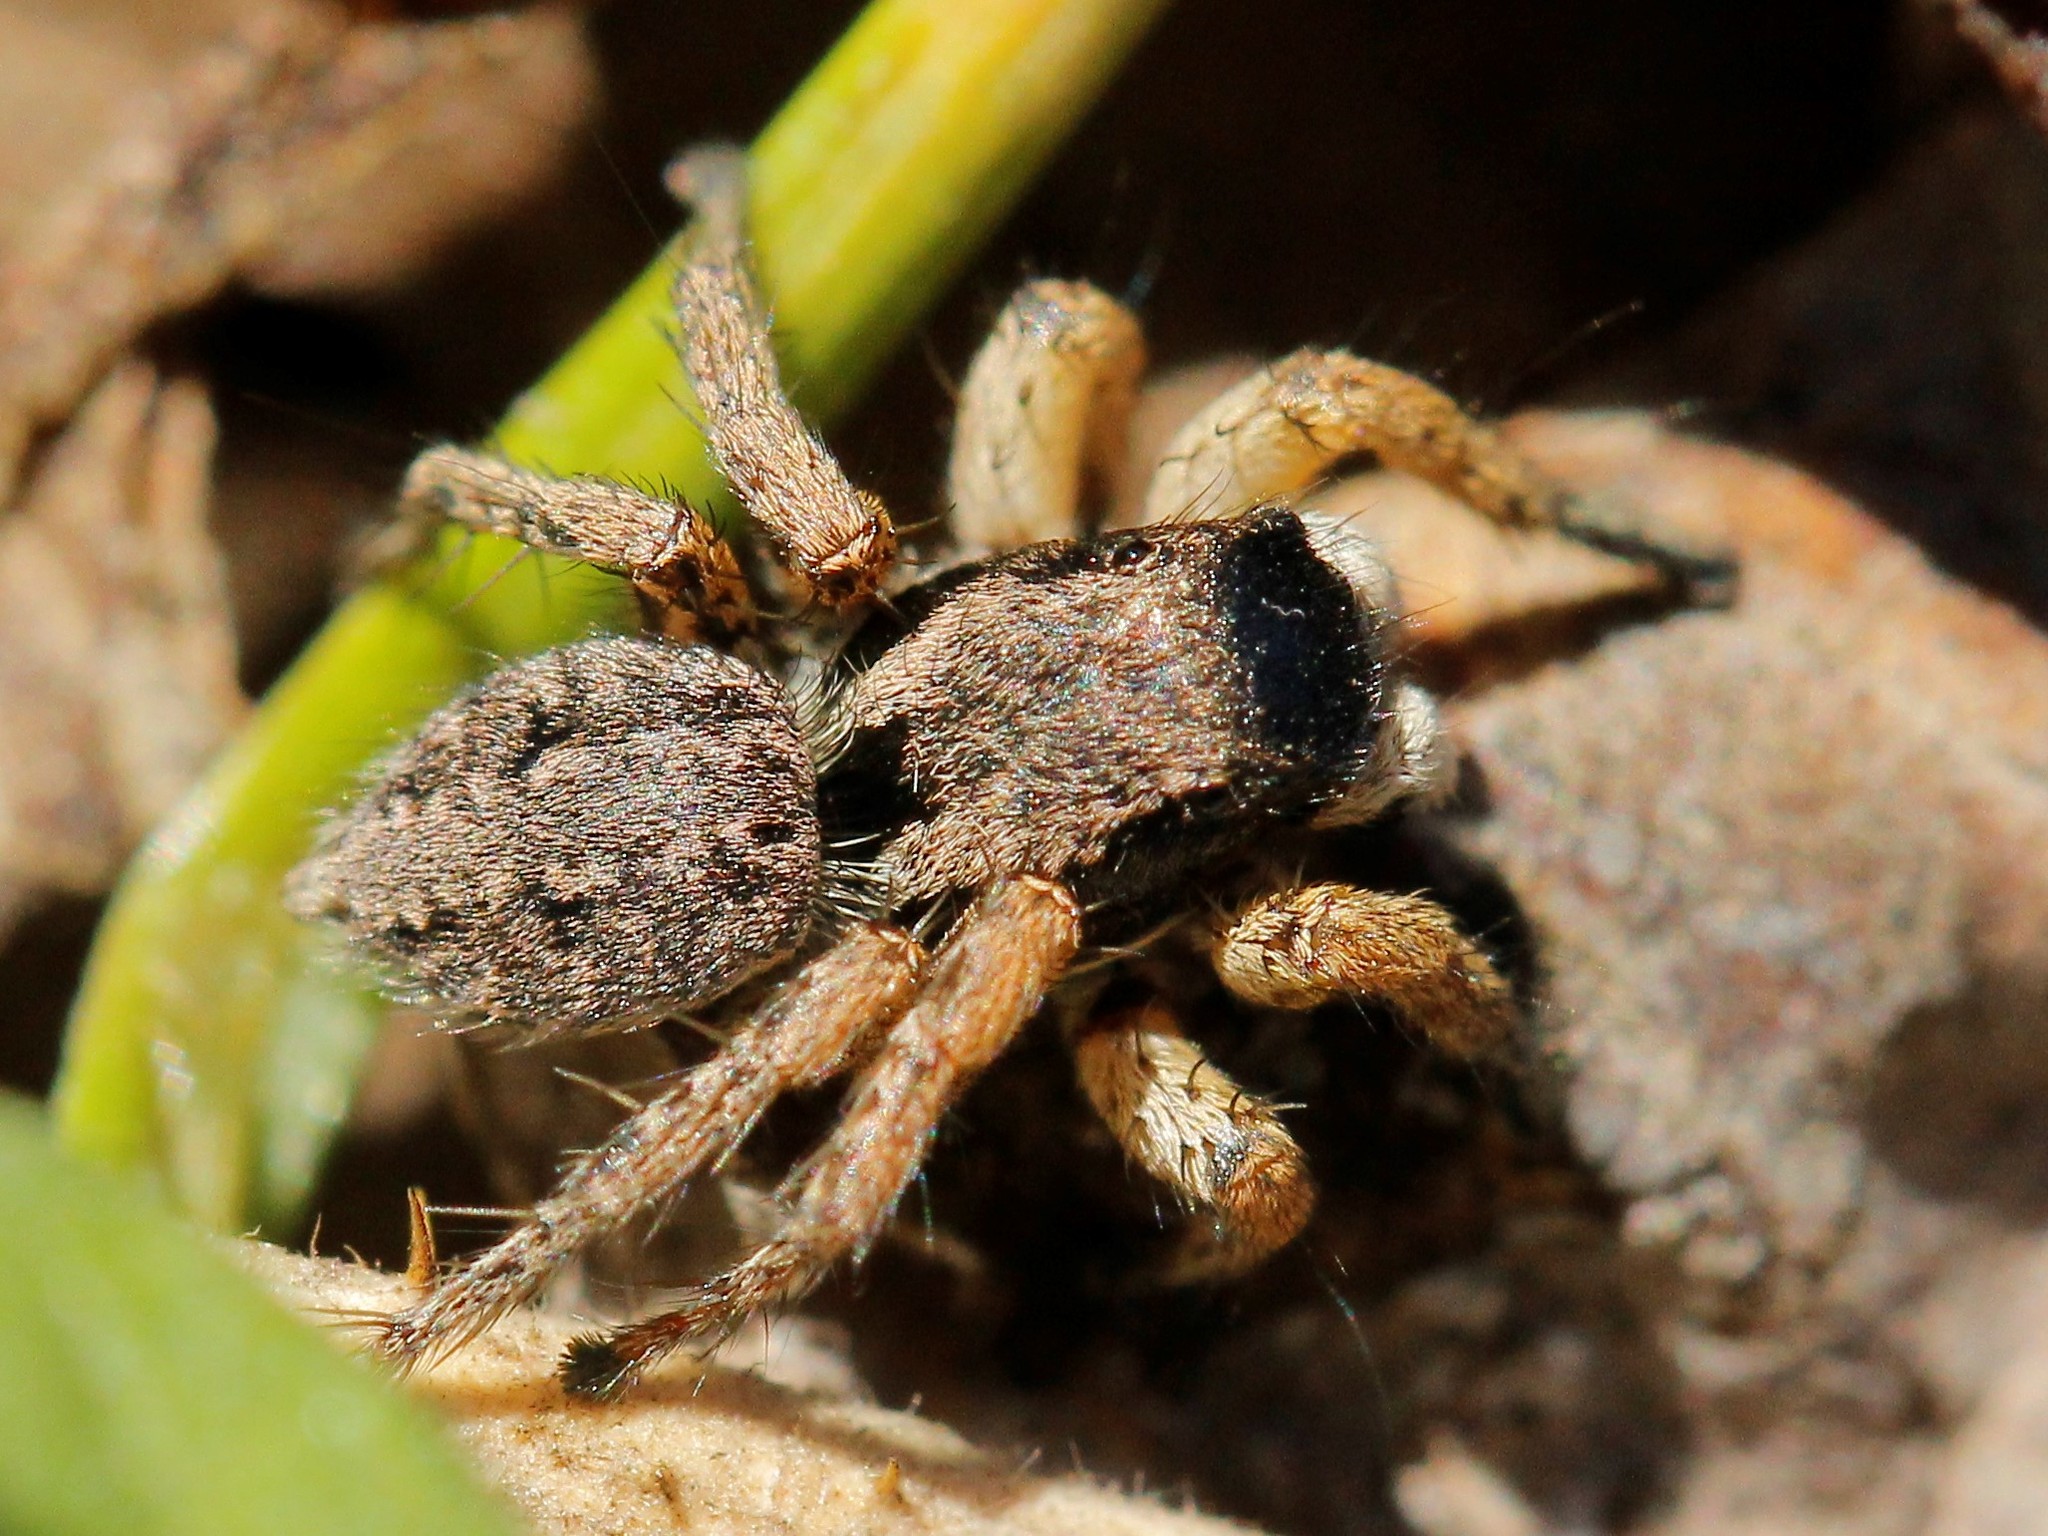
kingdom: Animalia
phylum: Arthropoda
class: Arachnida
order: Araneae
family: Salticidae
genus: Asianellus
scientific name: Asianellus festivus
